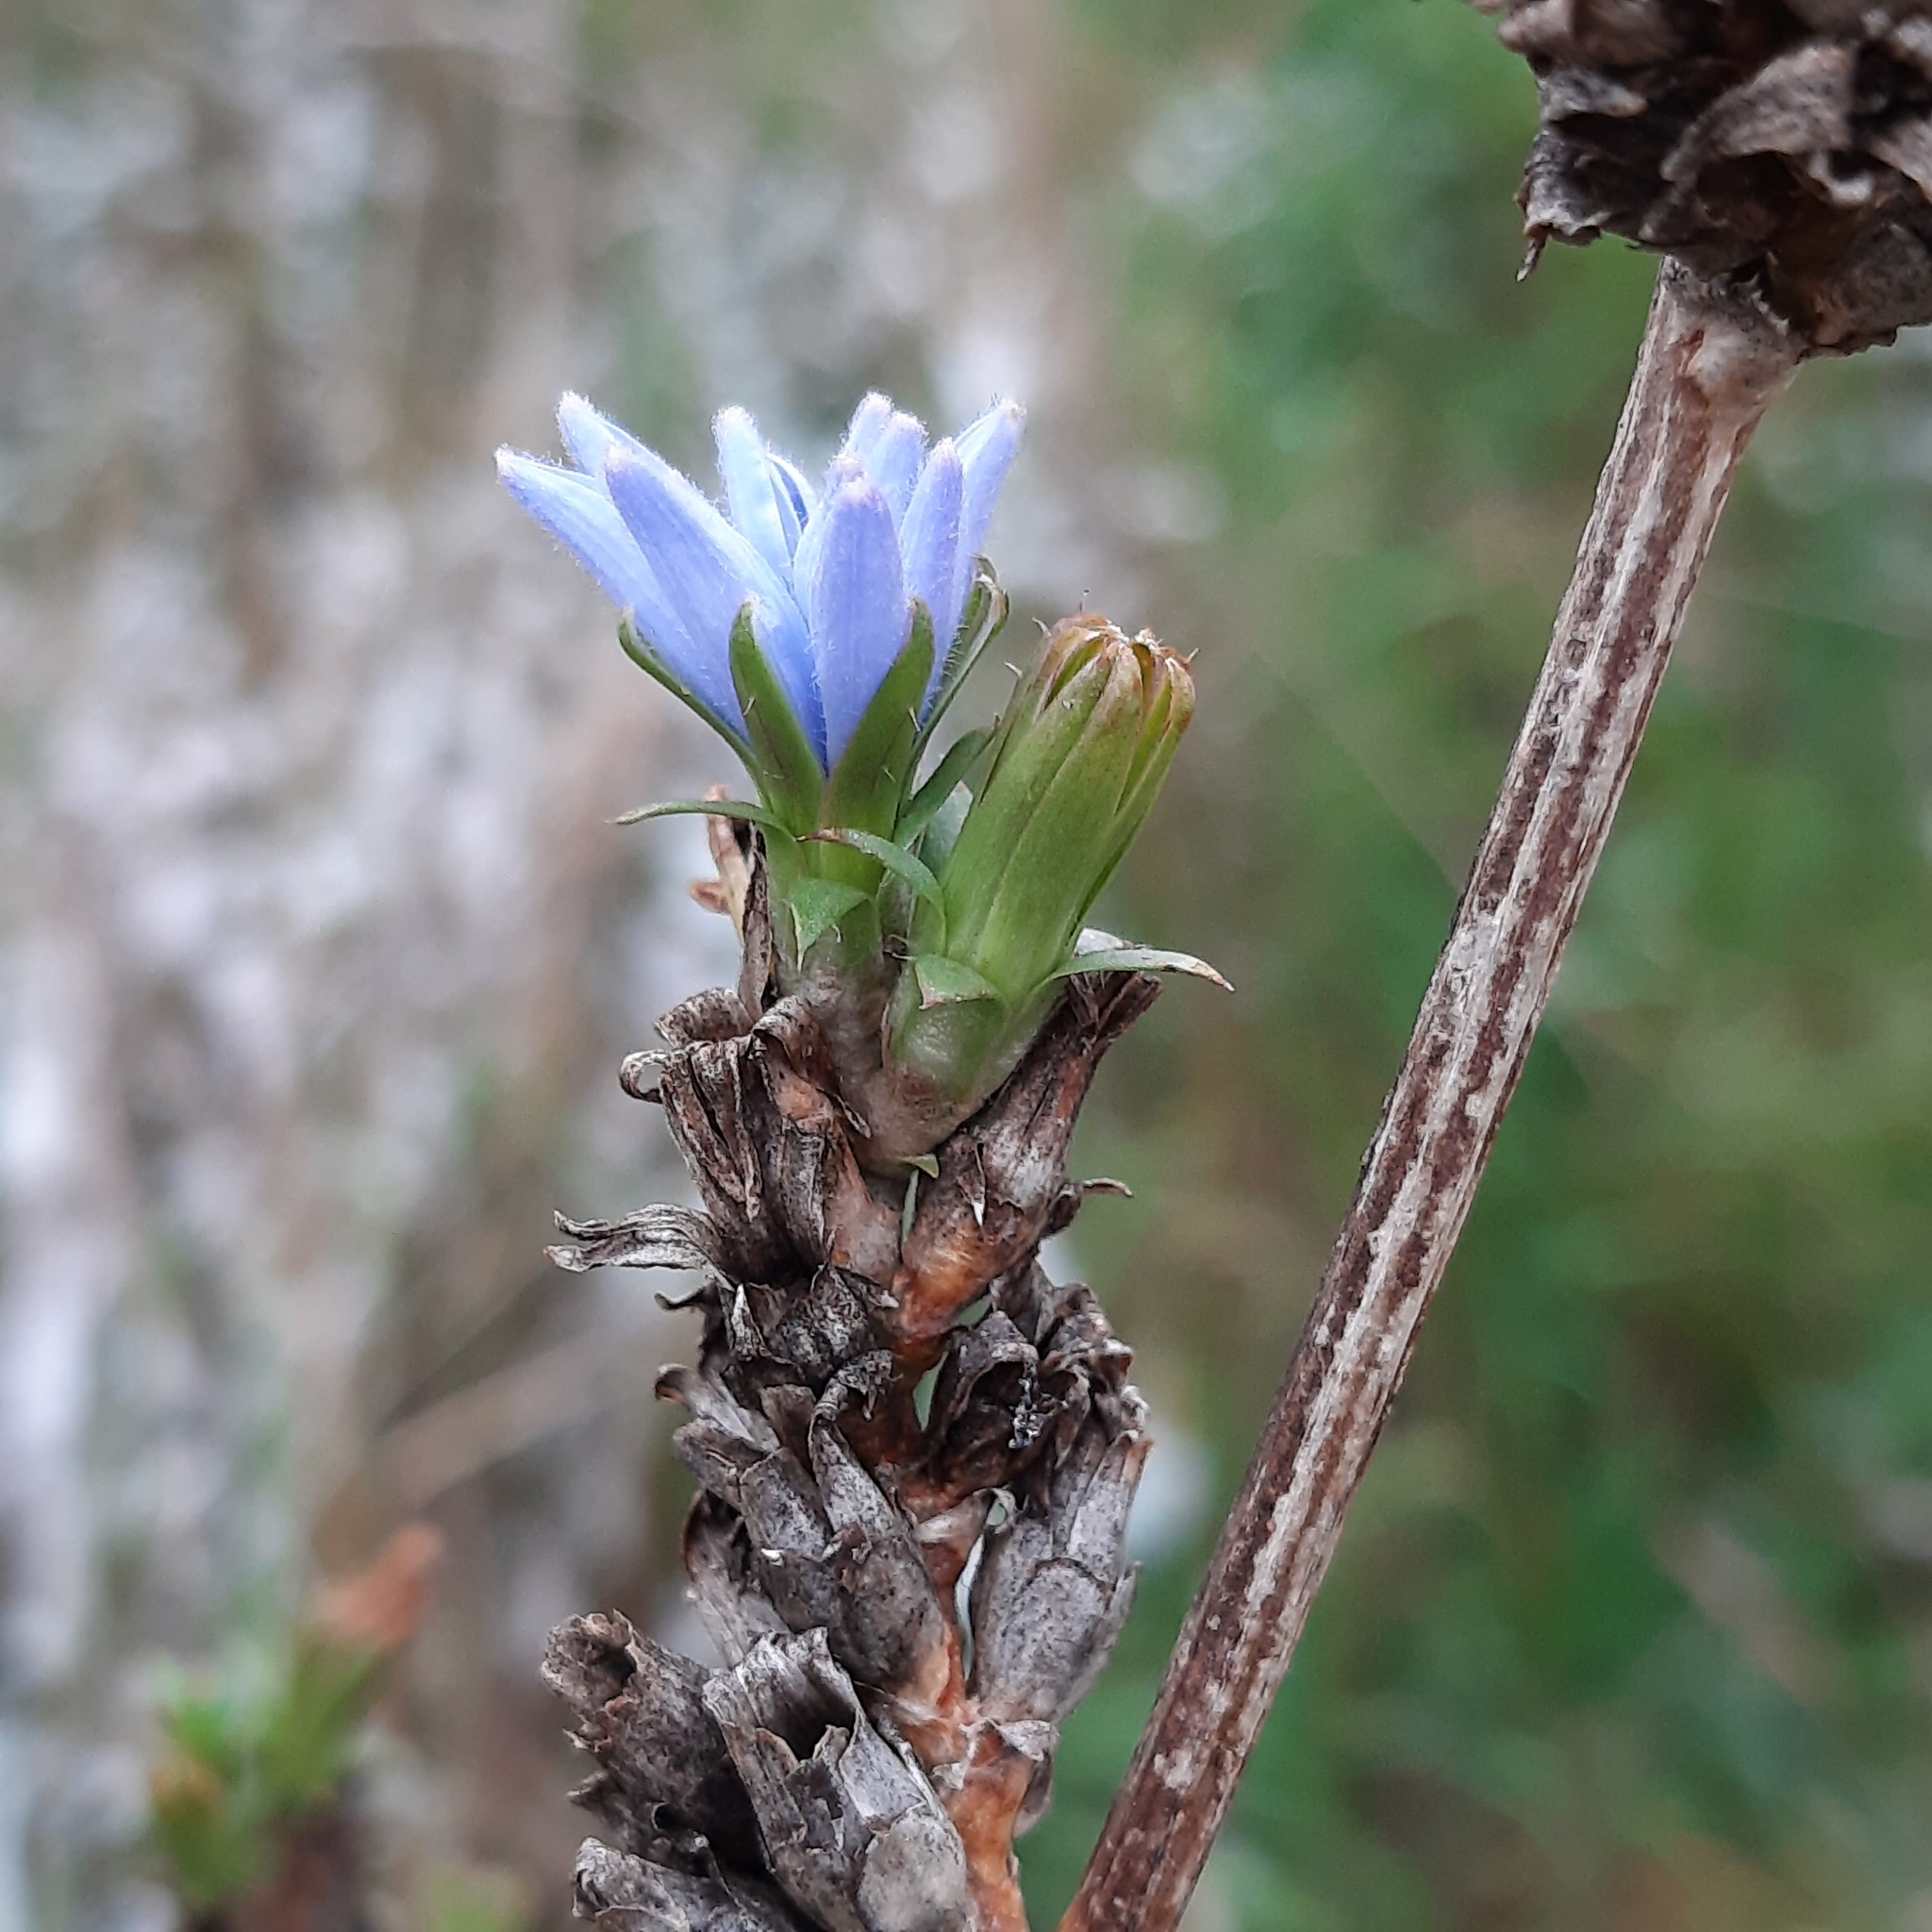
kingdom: Plantae
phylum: Tracheophyta
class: Magnoliopsida
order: Asterales
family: Asteraceae
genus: Cichorium
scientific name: Cichorium intybus
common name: Chicory
